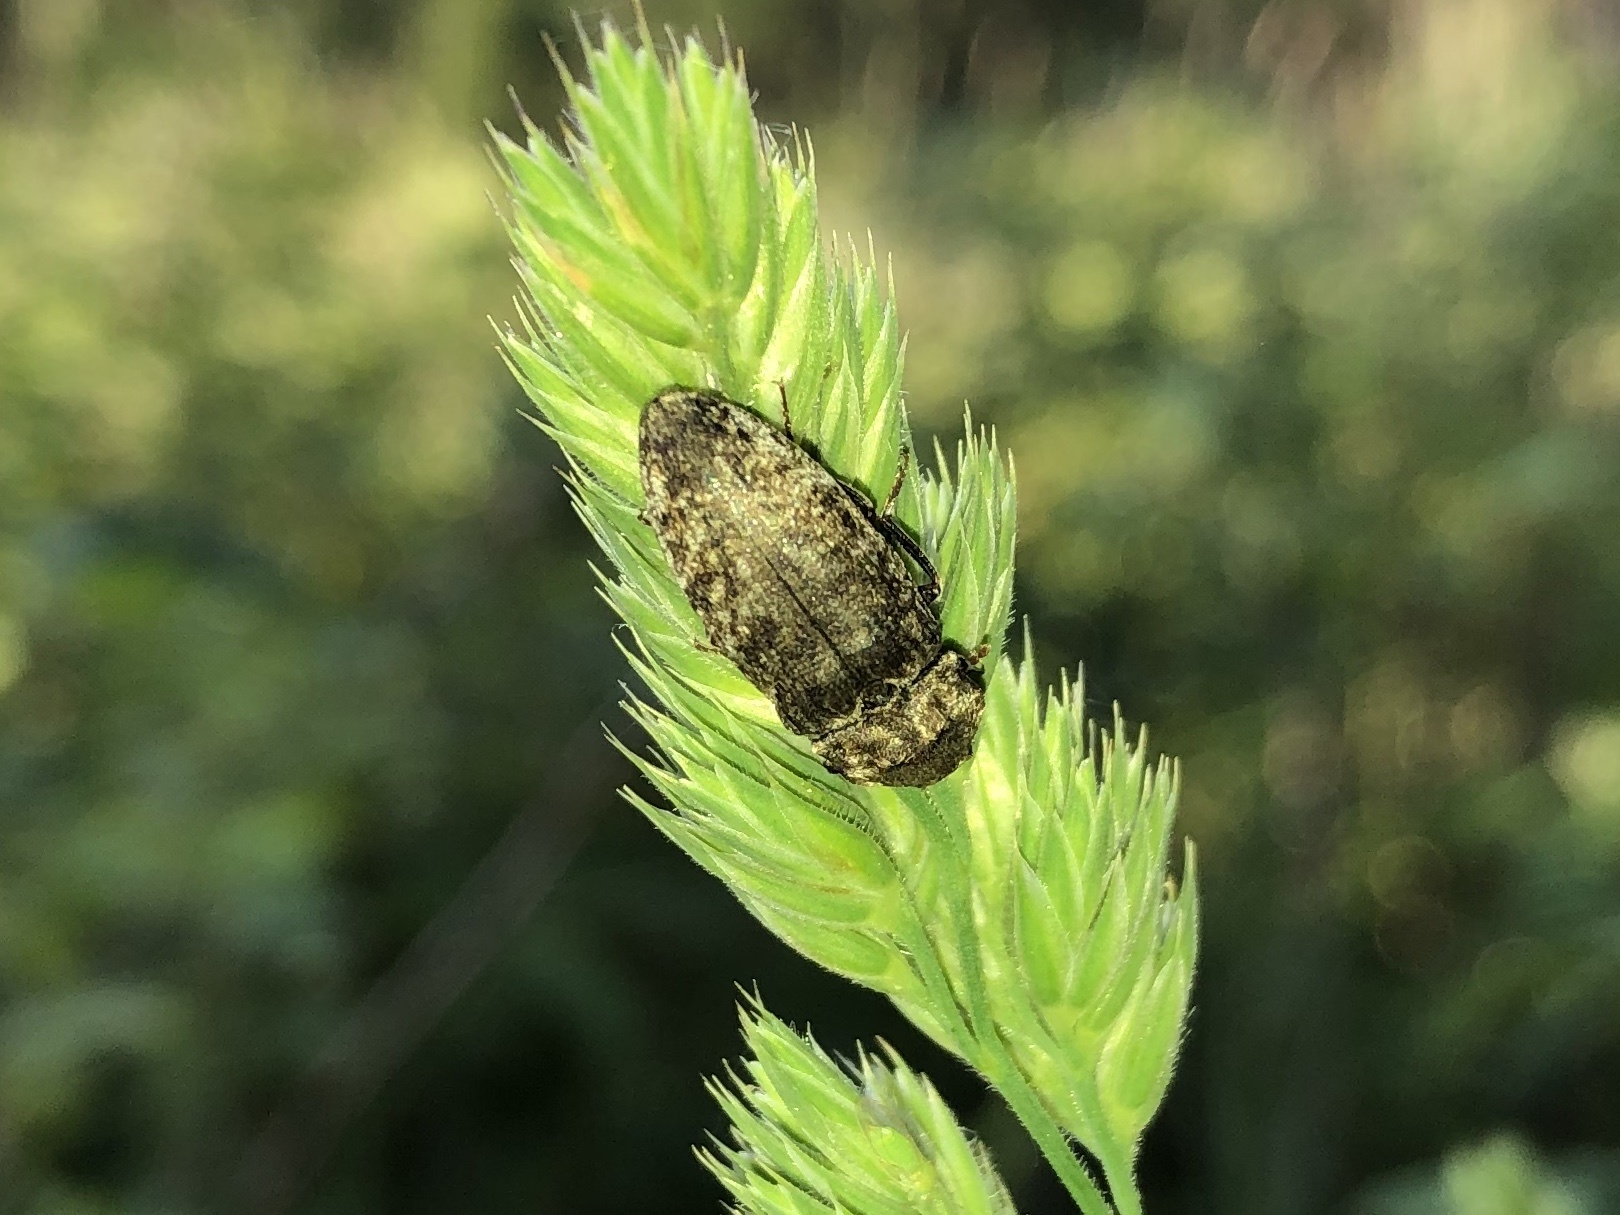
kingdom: Animalia
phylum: Arthropoda
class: Insecta
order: Coleoptera
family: Elateridae
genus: Agrypnus
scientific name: Agrypnus murinus
